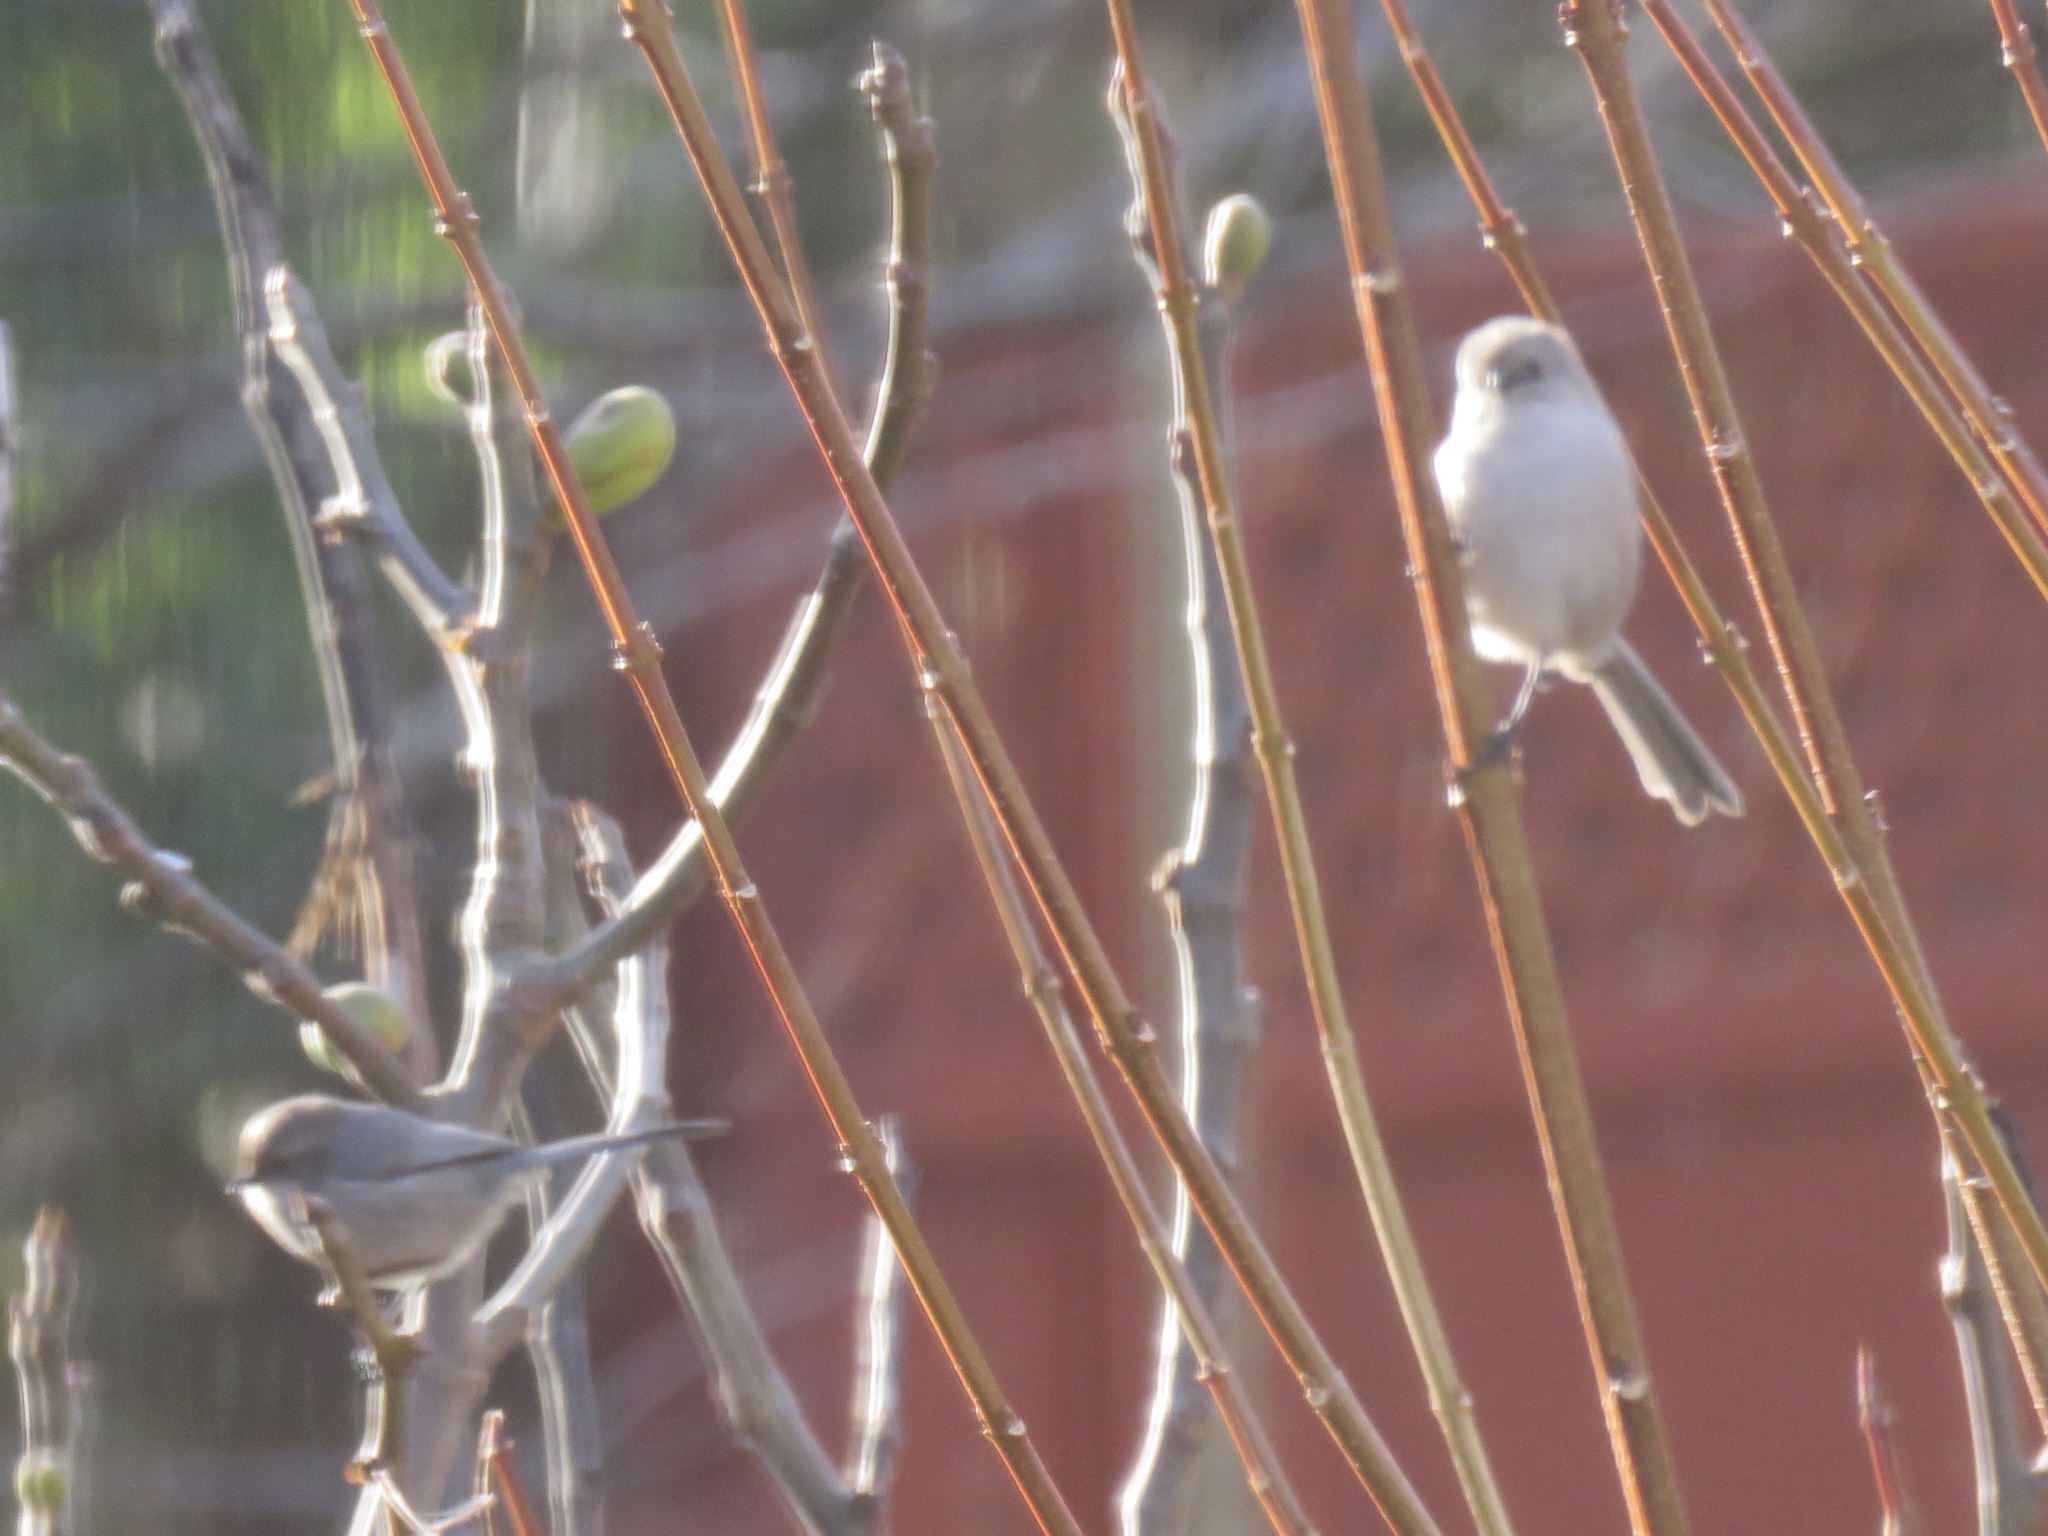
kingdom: Animalia
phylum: Chordata
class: Aves
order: Passeriformes
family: Aegithalidae
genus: Psaltriparus
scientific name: Psaltriparus minimus
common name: American bushtit
